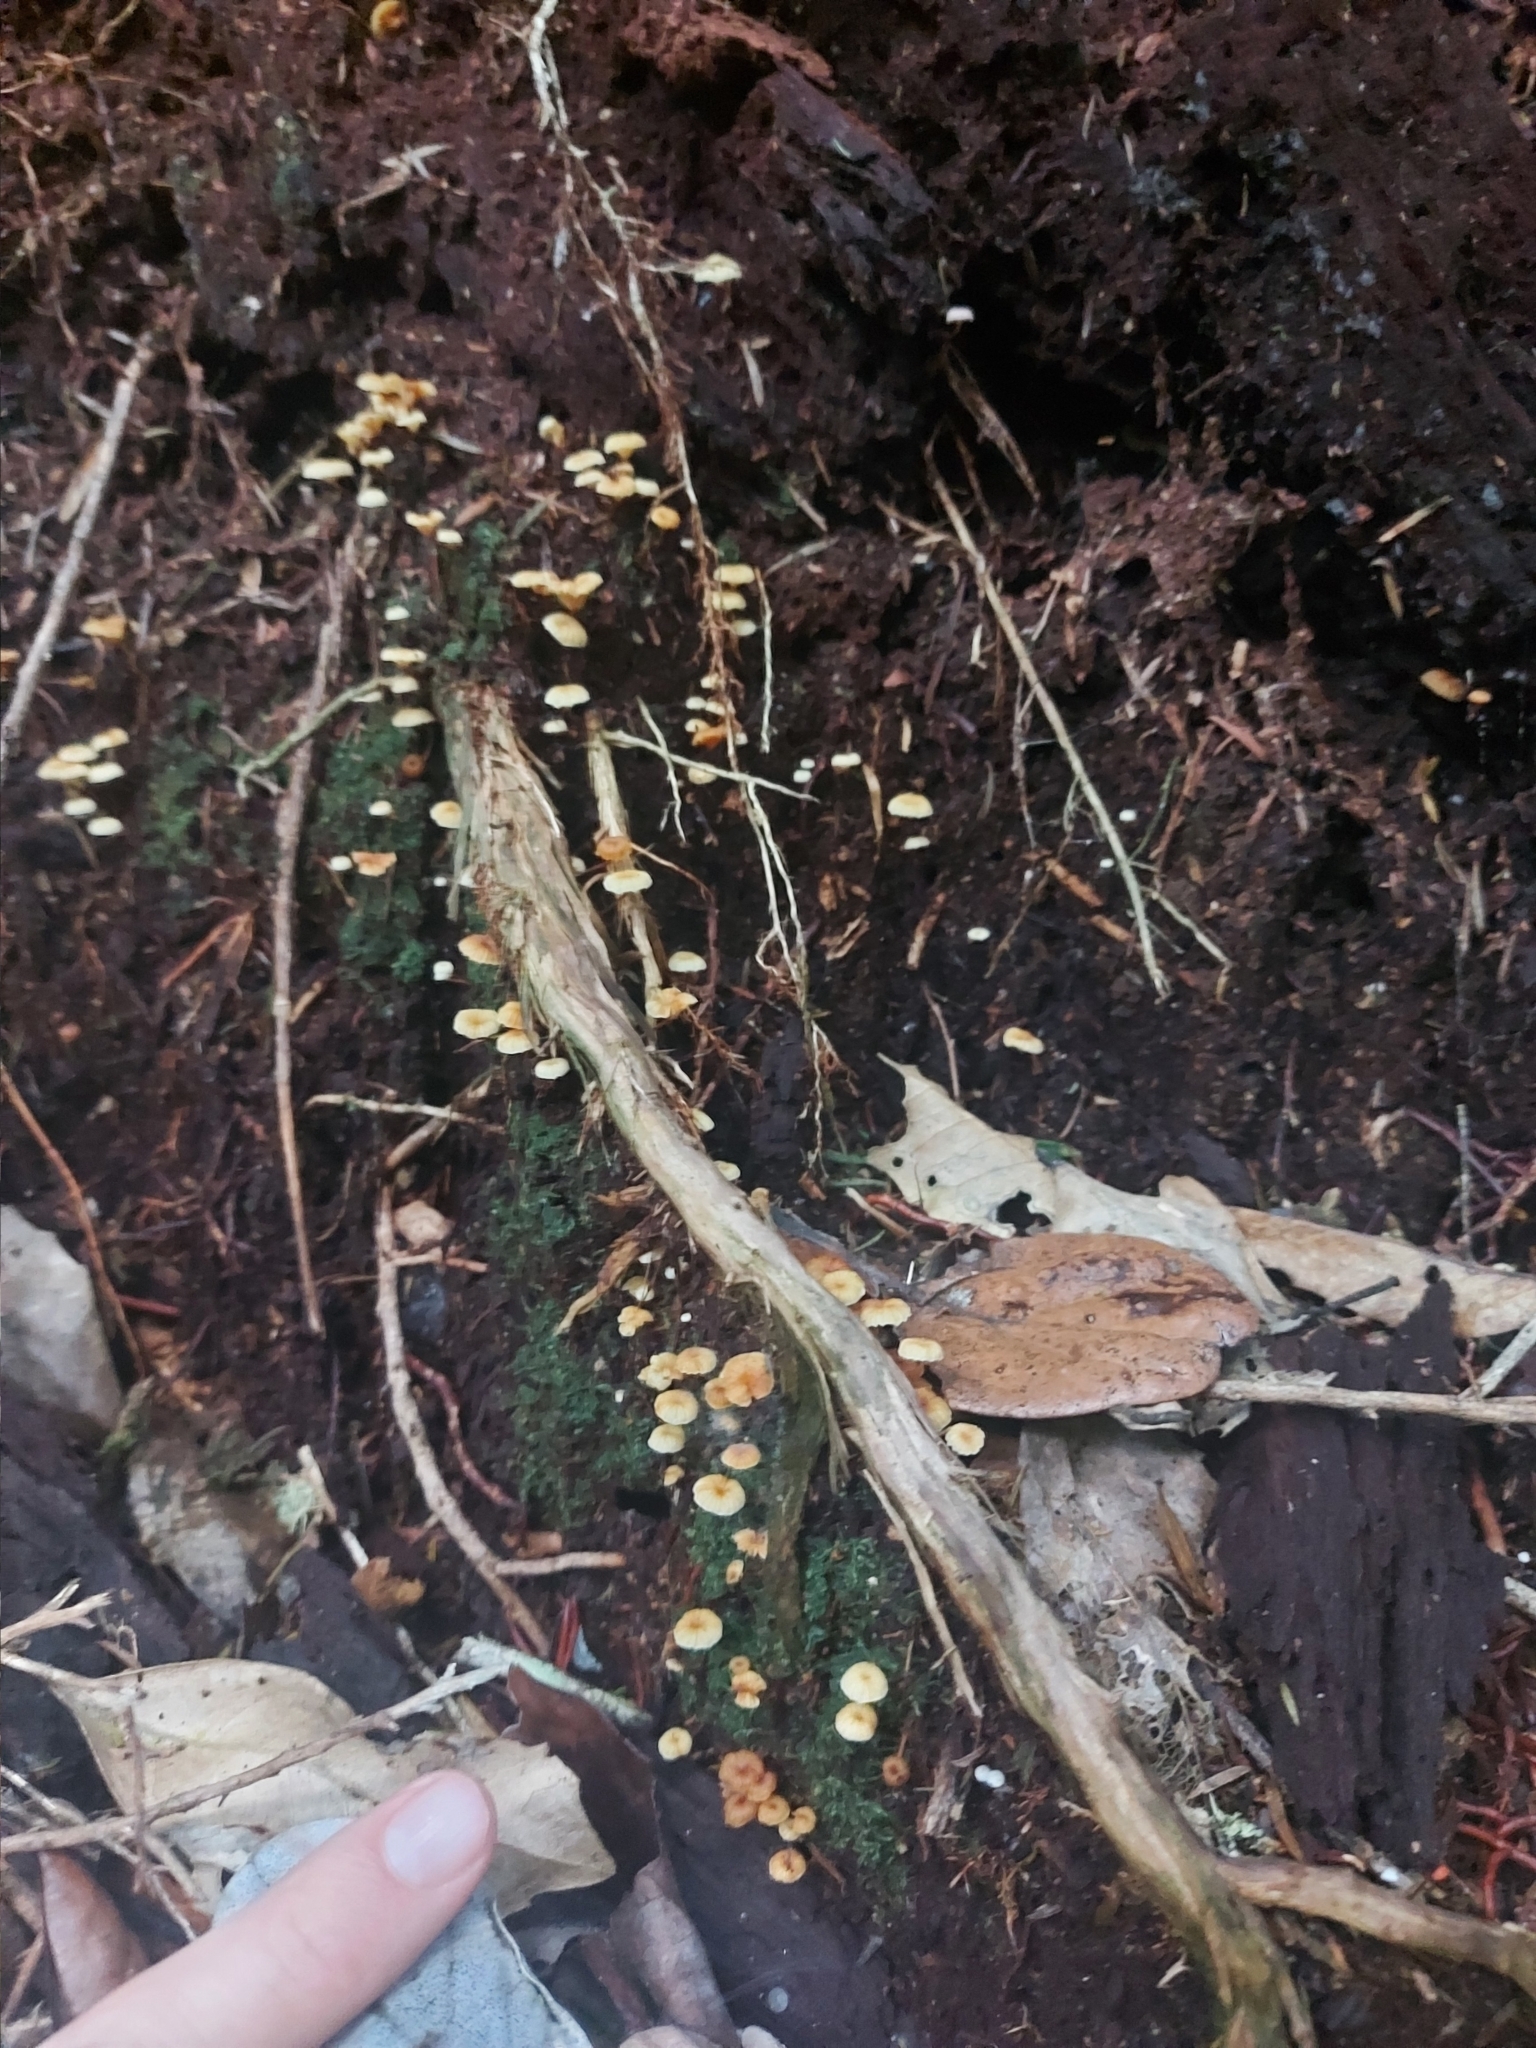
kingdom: Fungi
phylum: Basidiomycota
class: Agaricomycetes
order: Agaricales
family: Mycenaceae
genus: Xeromphalina
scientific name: Xeromphalina leonina
